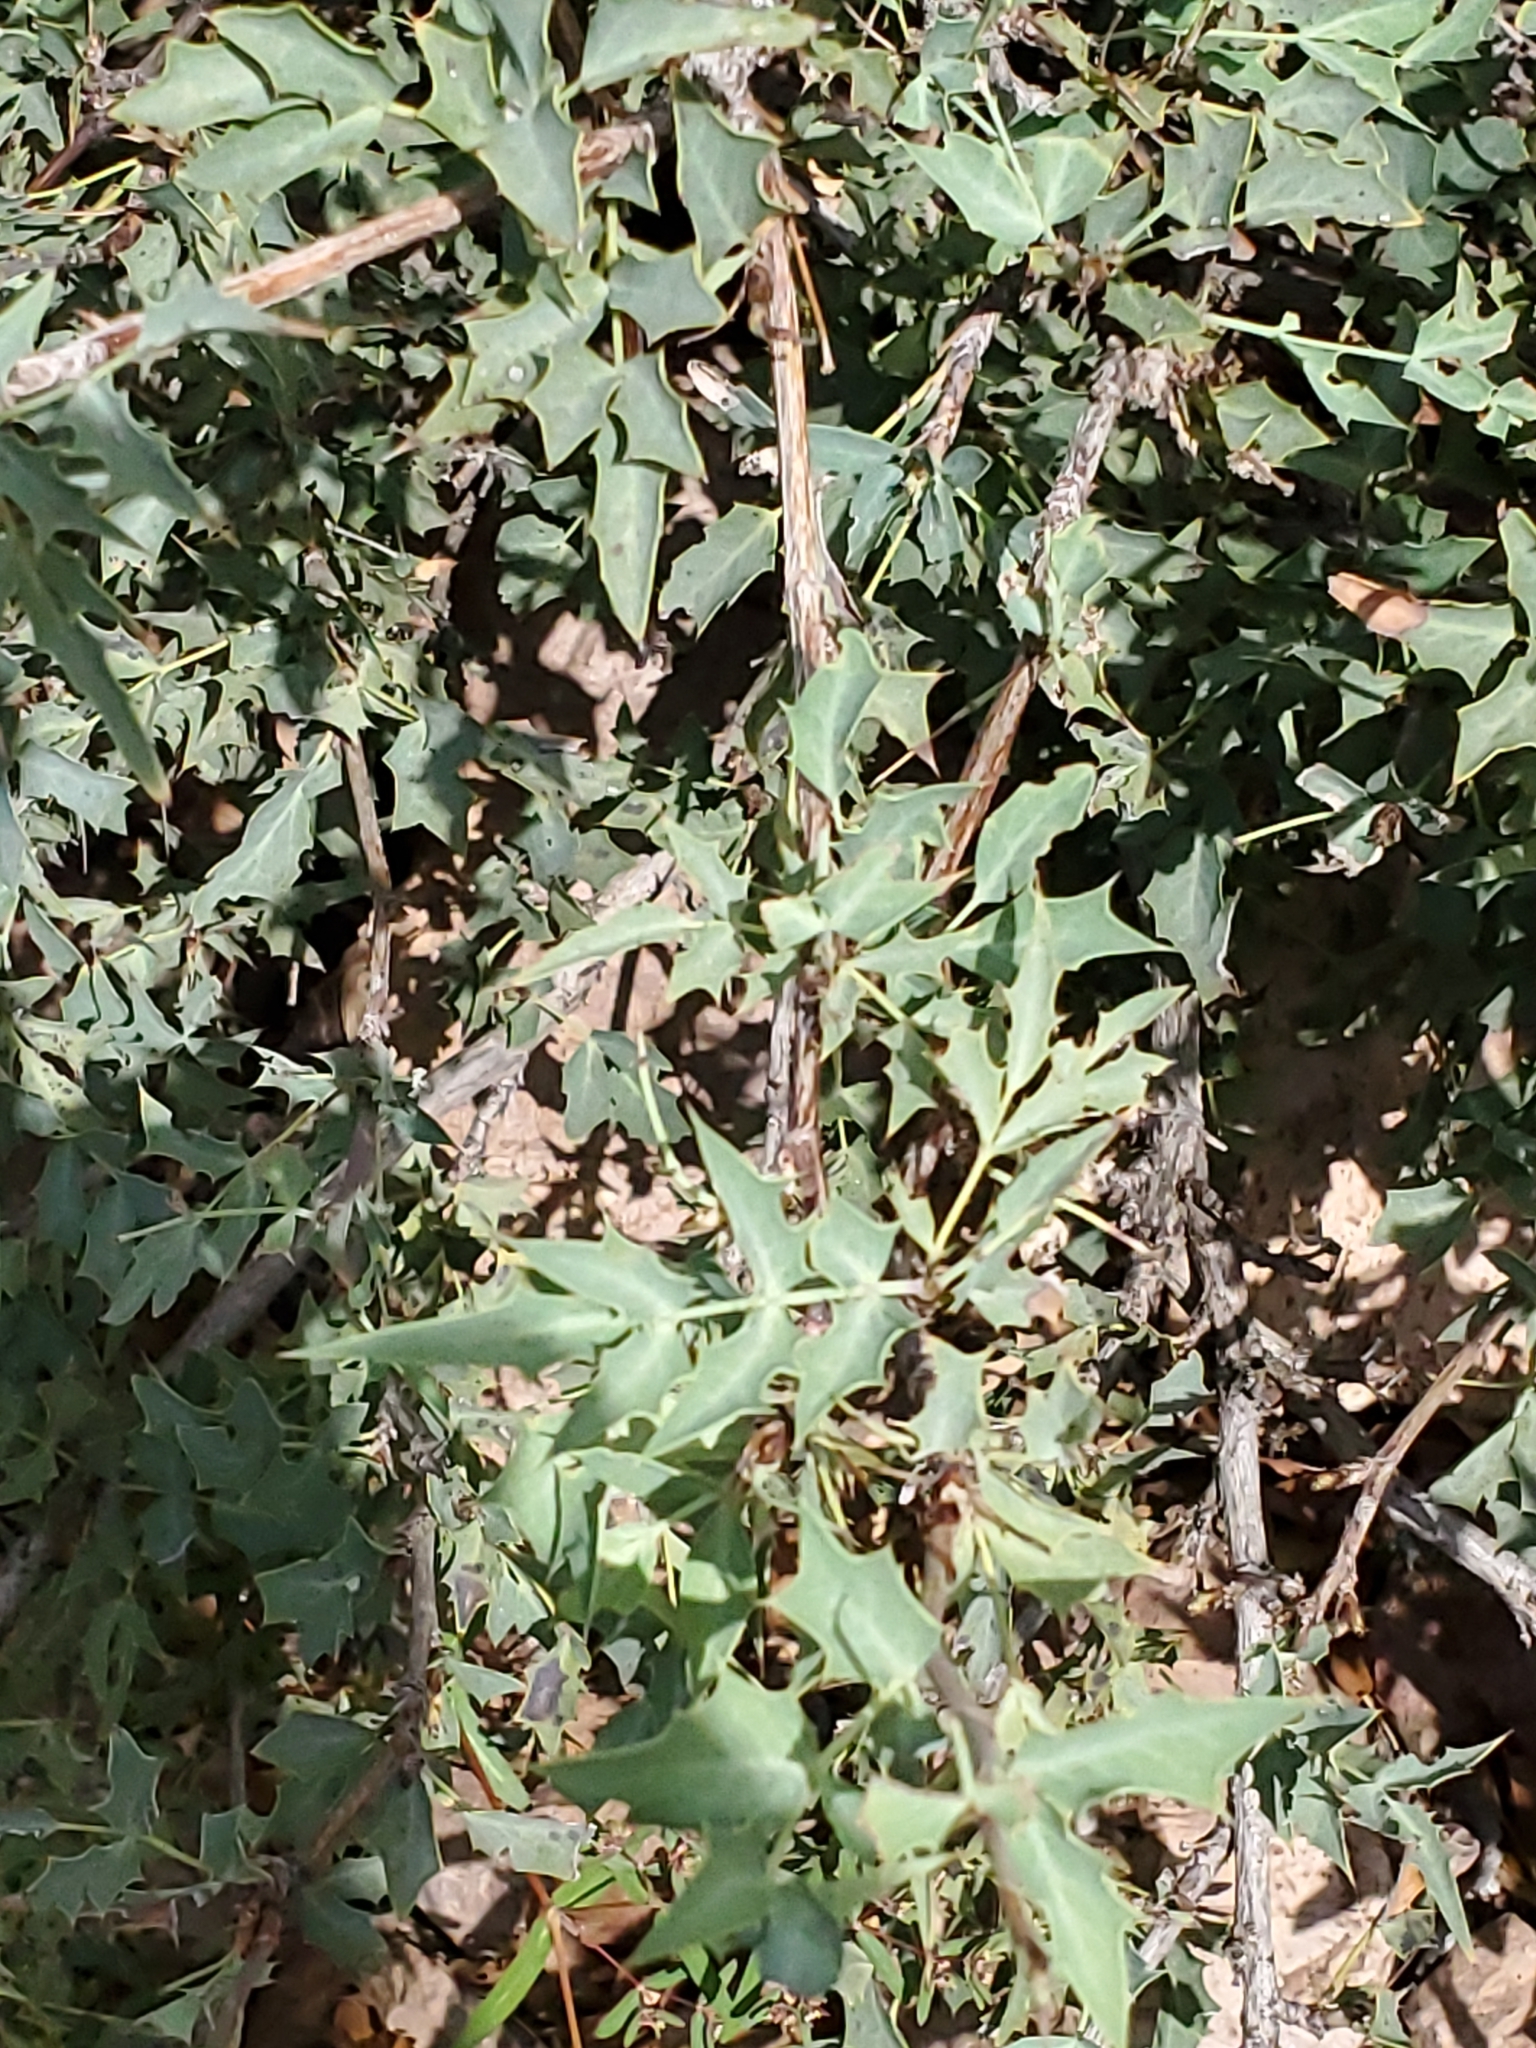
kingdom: Plantae
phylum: Tracheophyta
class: Magnoliopsida
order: Ranunculales
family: Berberidaceae
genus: Alloberberis
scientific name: Alloberberis haematocarpa
